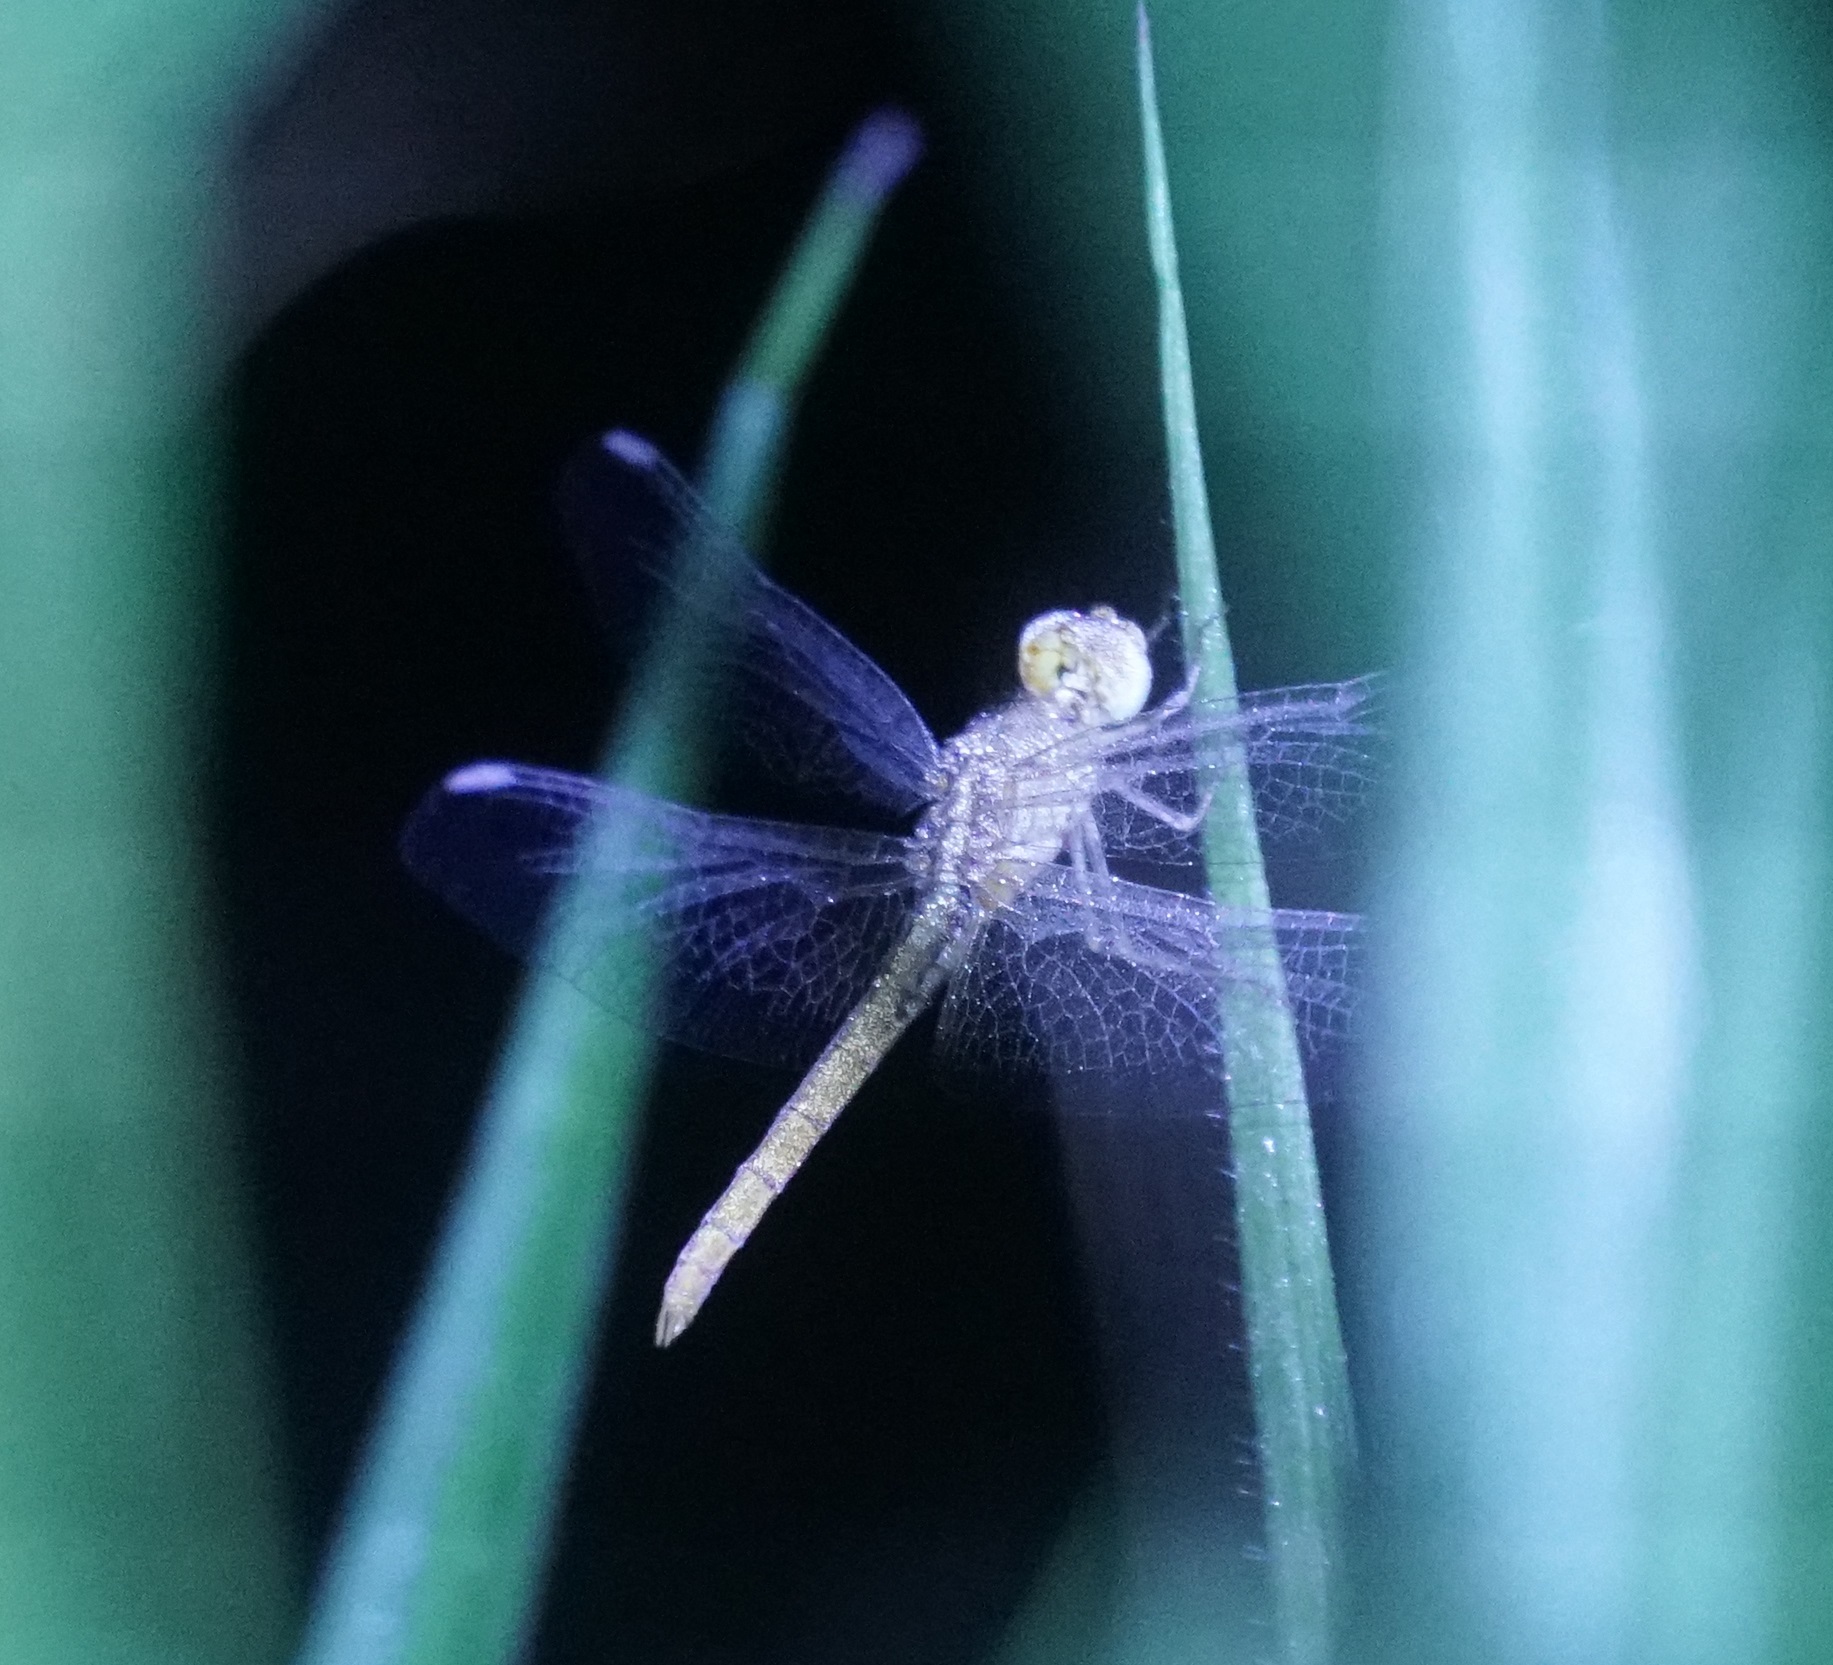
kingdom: Animalia
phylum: Arthropoda
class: Insecta
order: Odonata
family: Libellulidae
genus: Diplacodes
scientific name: Diplacodes haematodes
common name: Scarlet percher
